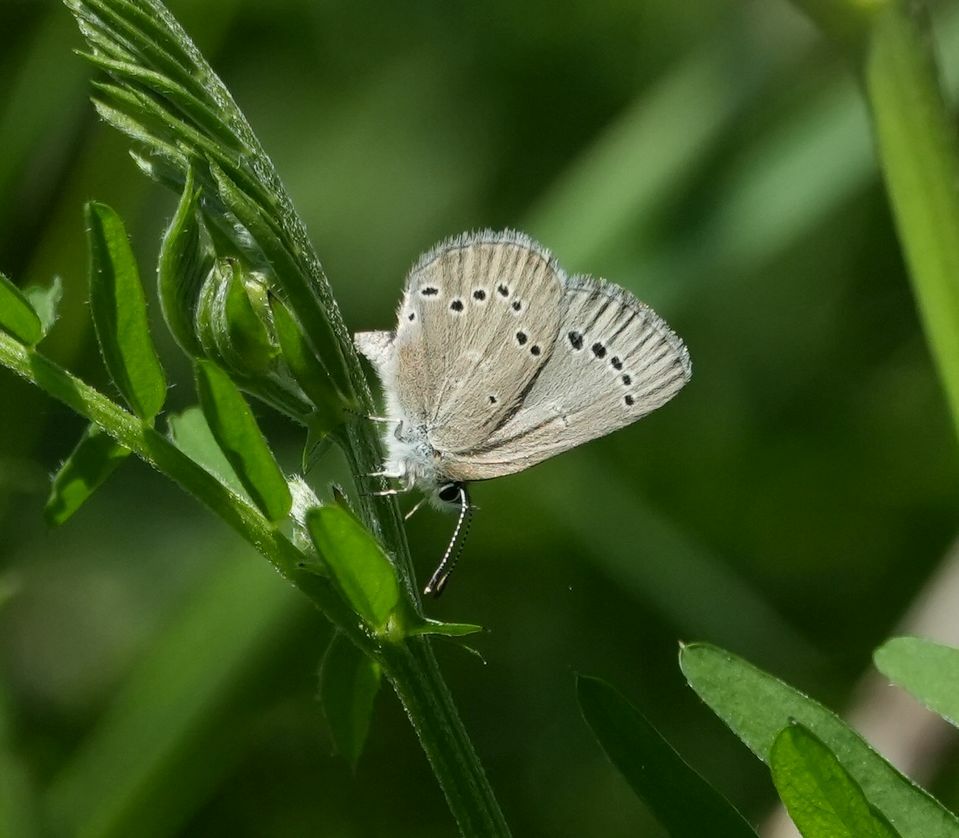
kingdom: Animalia
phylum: Arthropoda
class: Insecta
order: Lepidoptera
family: Lycaenidae
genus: Glaucopsyche
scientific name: Glaucopsyche lygdamus
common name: Silvery blue
